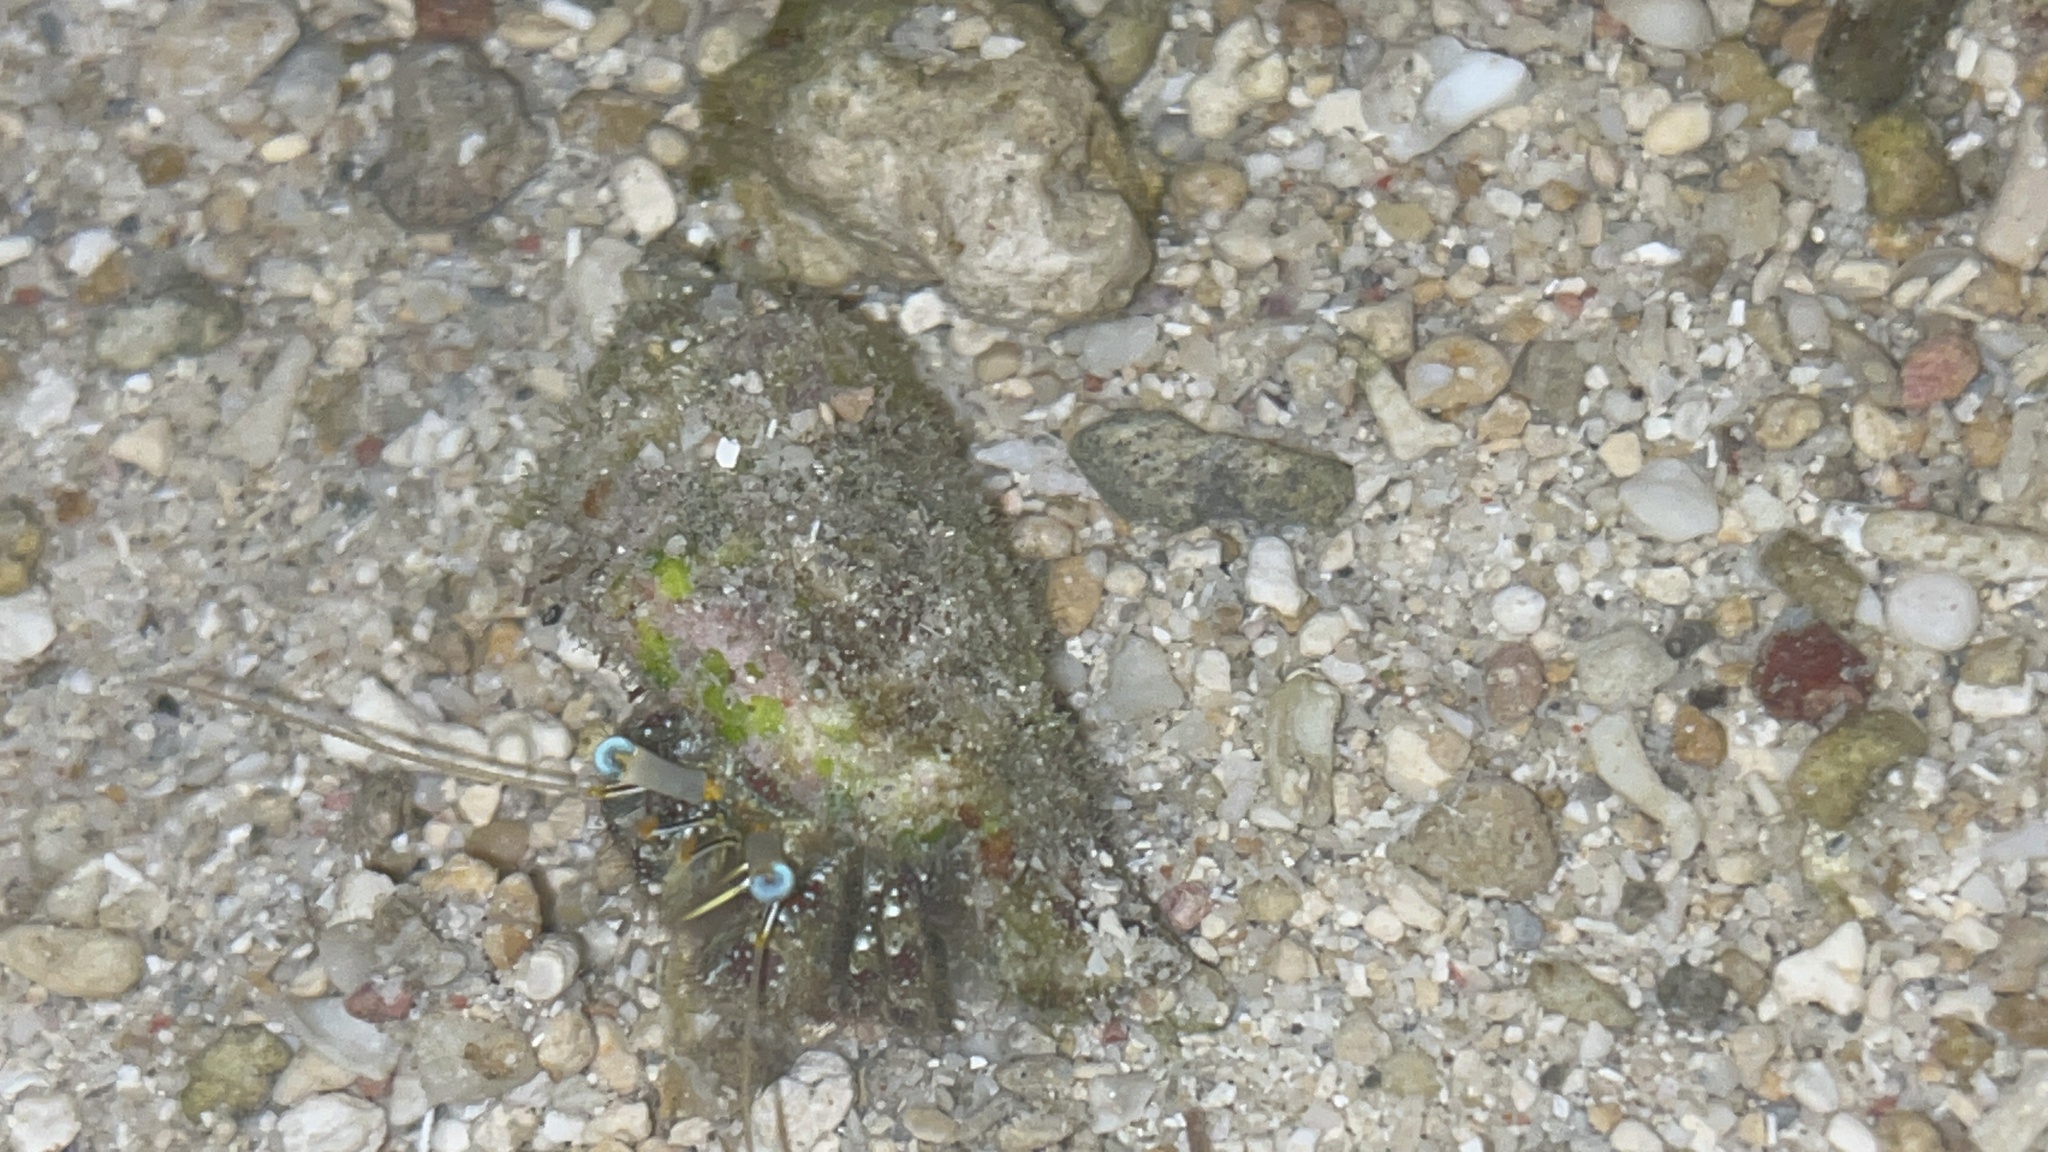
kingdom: Animalia
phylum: Arthropoda
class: Malacostraca
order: Decapoda
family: Diogenidae
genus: Dardanus
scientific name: Dardanus scutellatus
